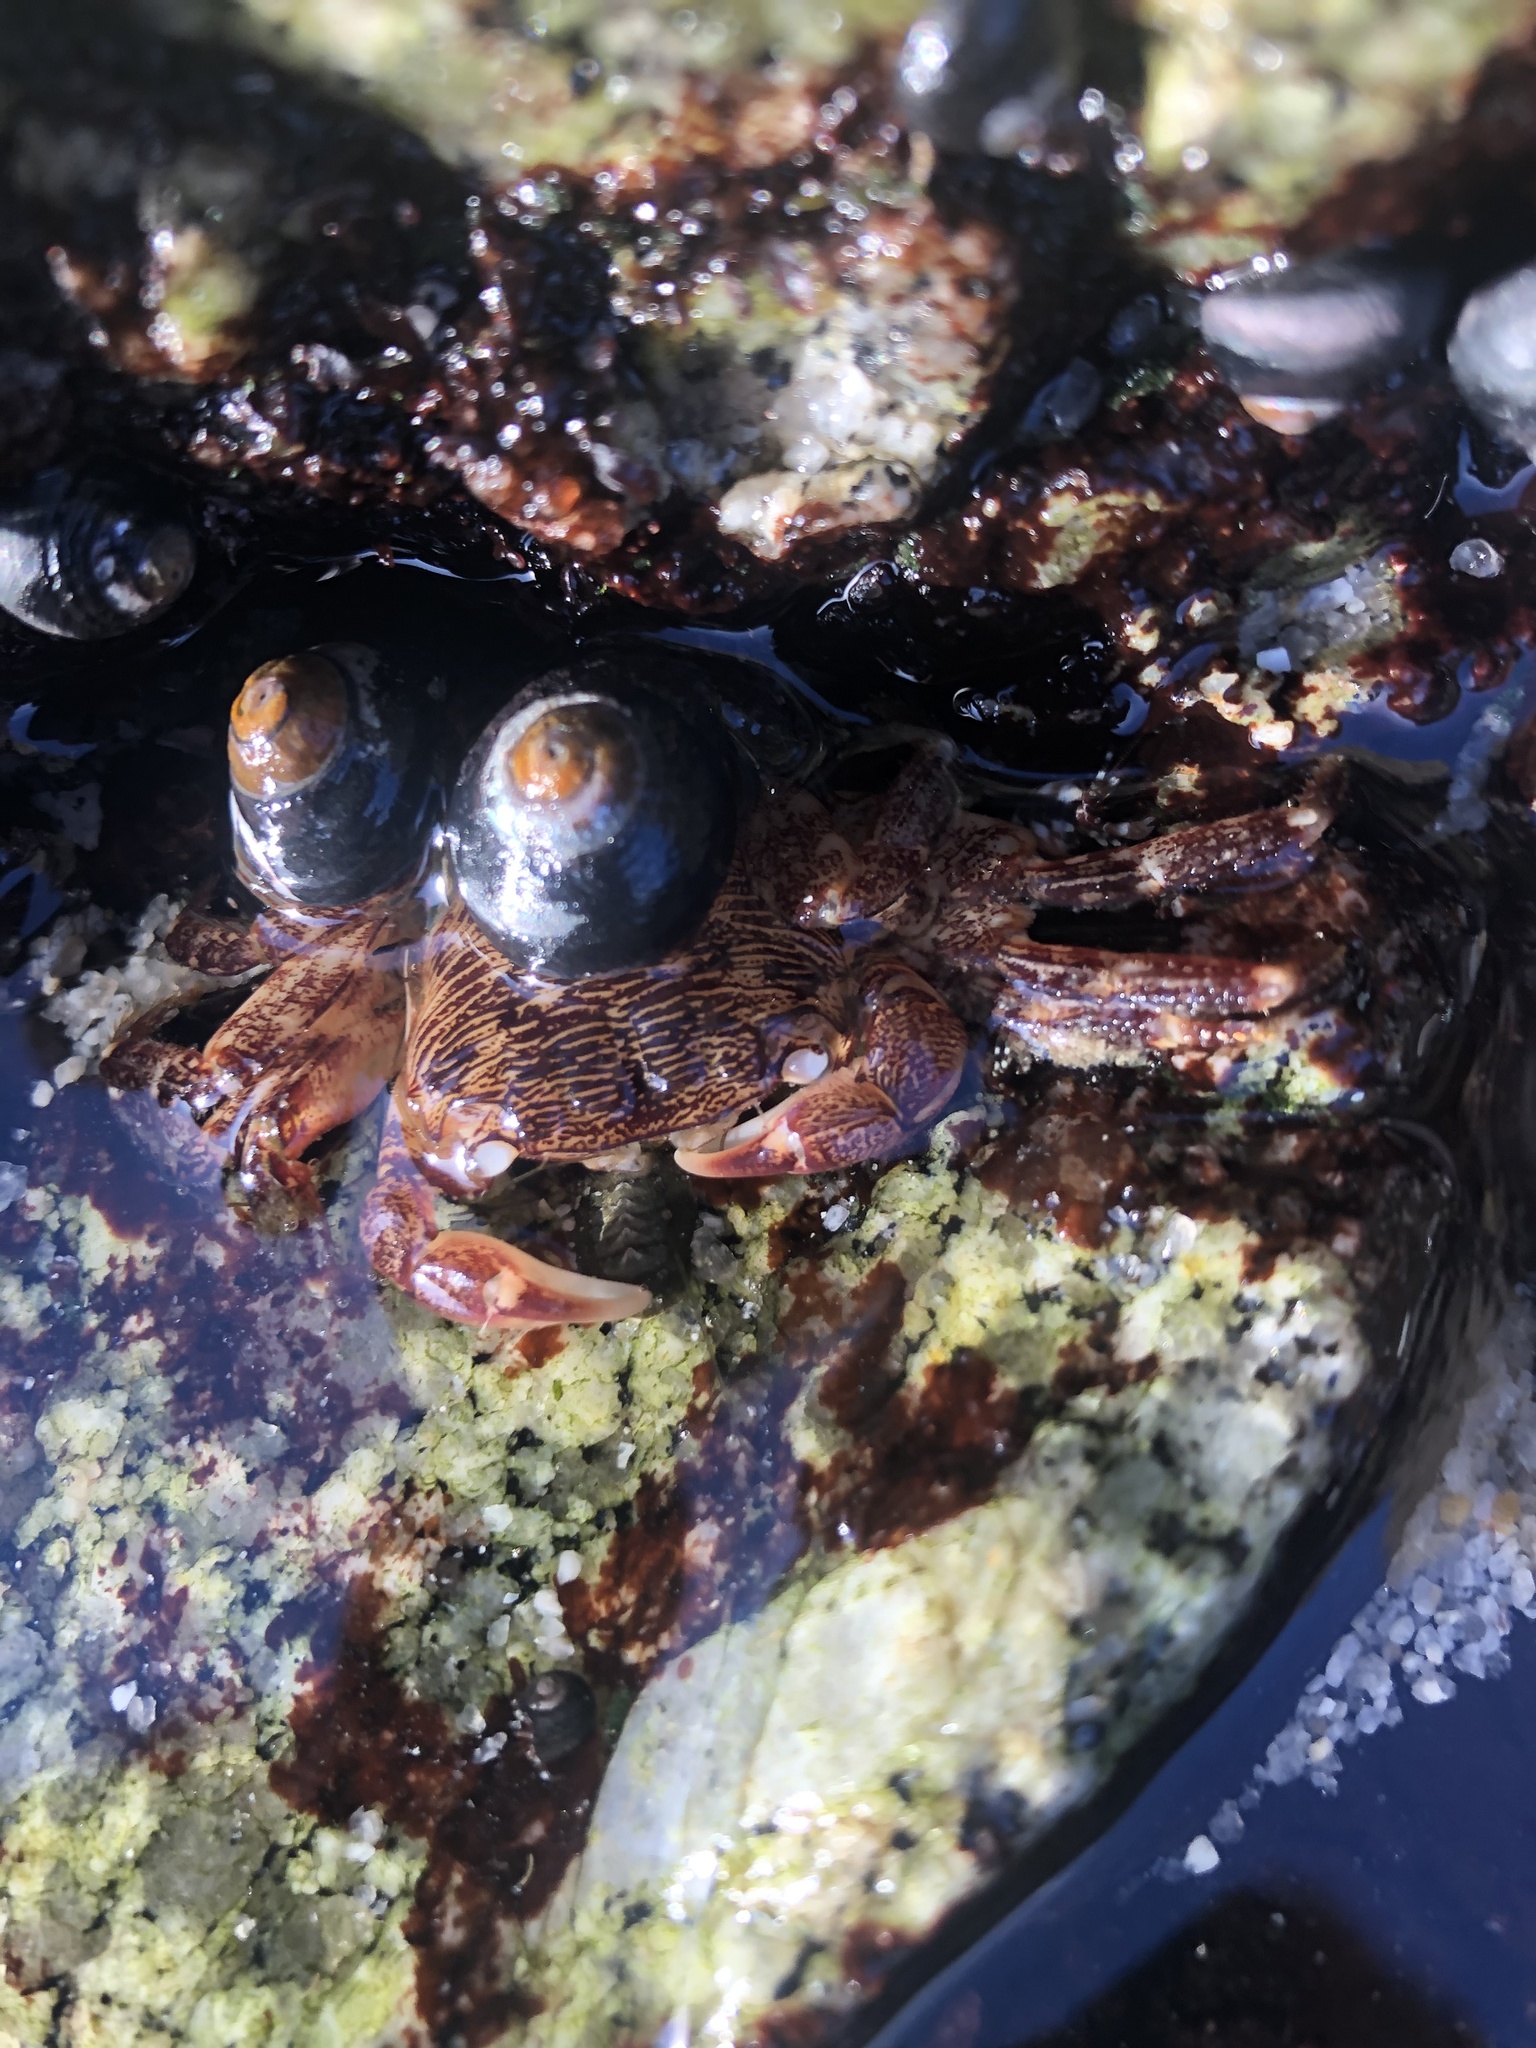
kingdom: Animalia
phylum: Arthropoda
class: Malacostraca
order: Decapoda
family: Grapsidae
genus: Pachygrapsus
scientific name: Pachygrapsus crassipes
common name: Striped shore crab
